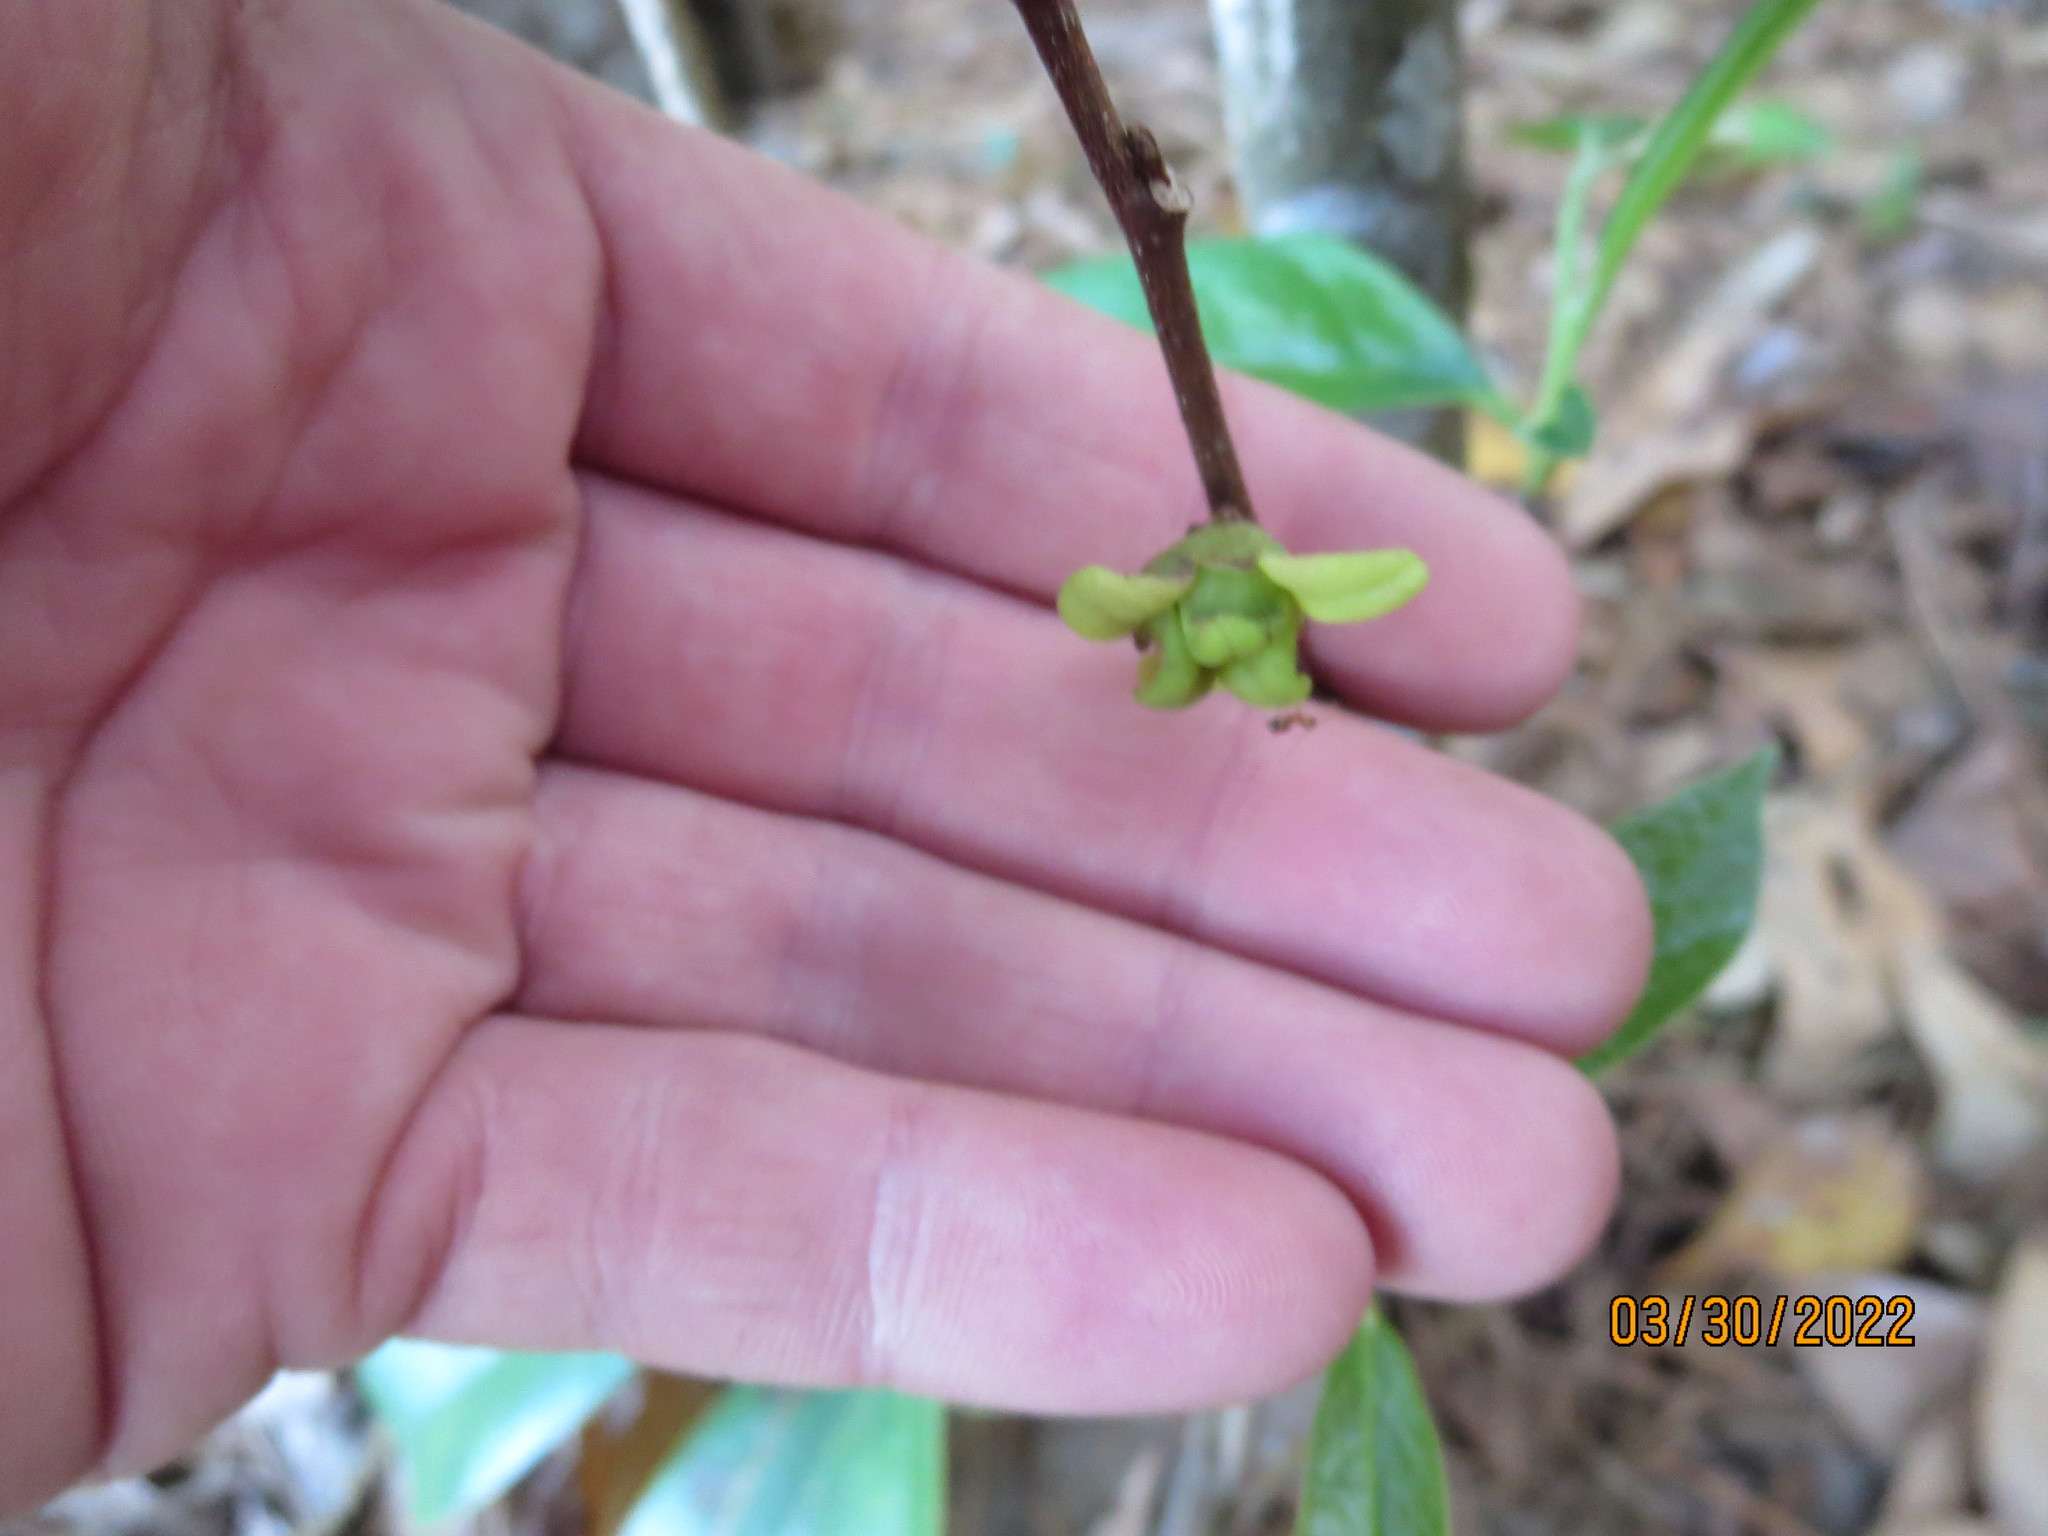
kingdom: Plantae
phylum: Tracheophyta
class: Magnoliopsida
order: Magnoliales
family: Annonaceae
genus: Asimina
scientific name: Asimina parviflora
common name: Dwarf pawpaw
